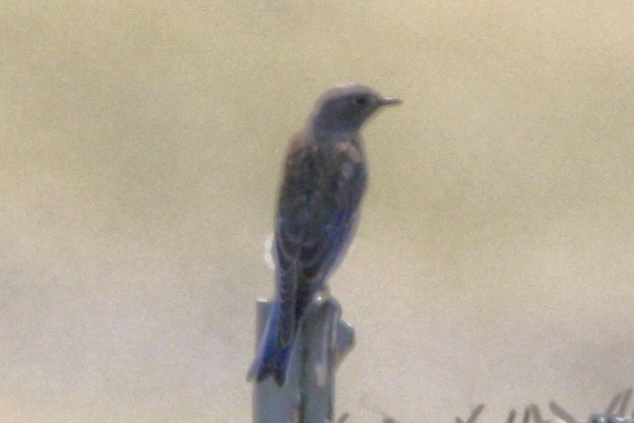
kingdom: Animalia
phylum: Chordata
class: Aves
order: Passeriformes
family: Turdidae
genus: Sialia
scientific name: Sialia mexicana
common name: Western bluebird
